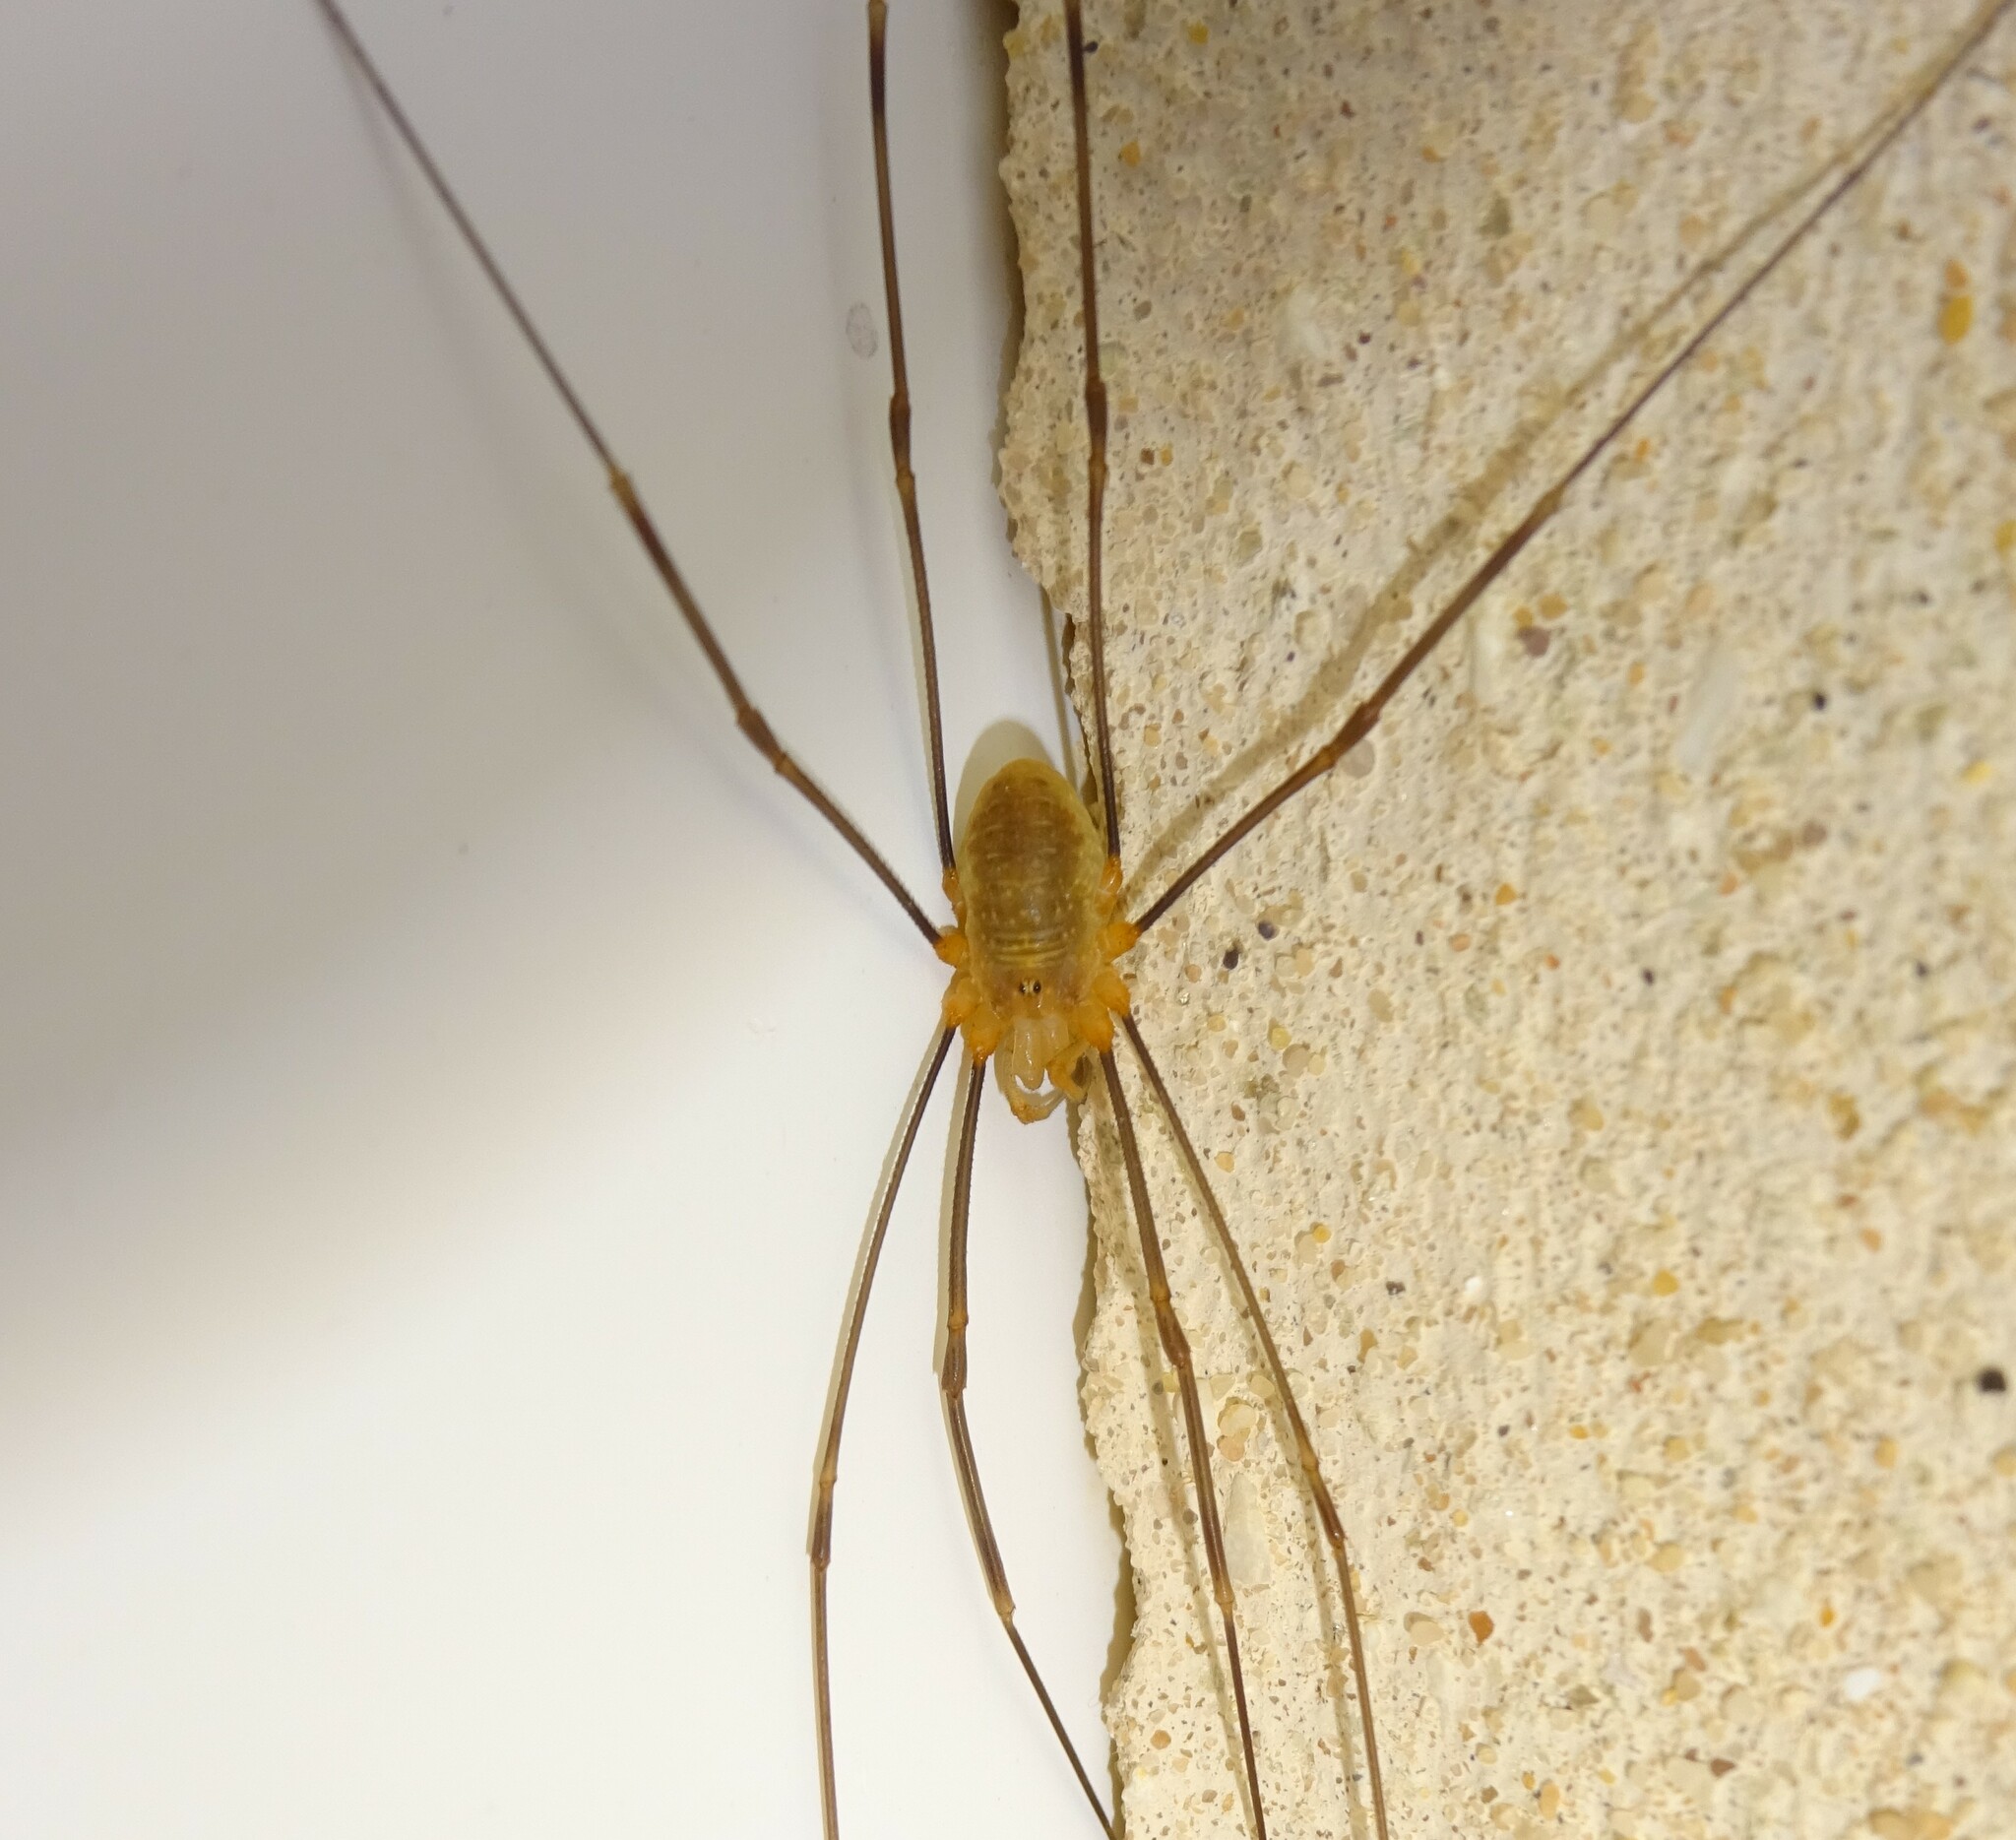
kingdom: Animalia
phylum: Arthropoda
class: Arachnida
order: Opiliones
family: Phalangiidae
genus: Opilio
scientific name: Opilio canestrinii
